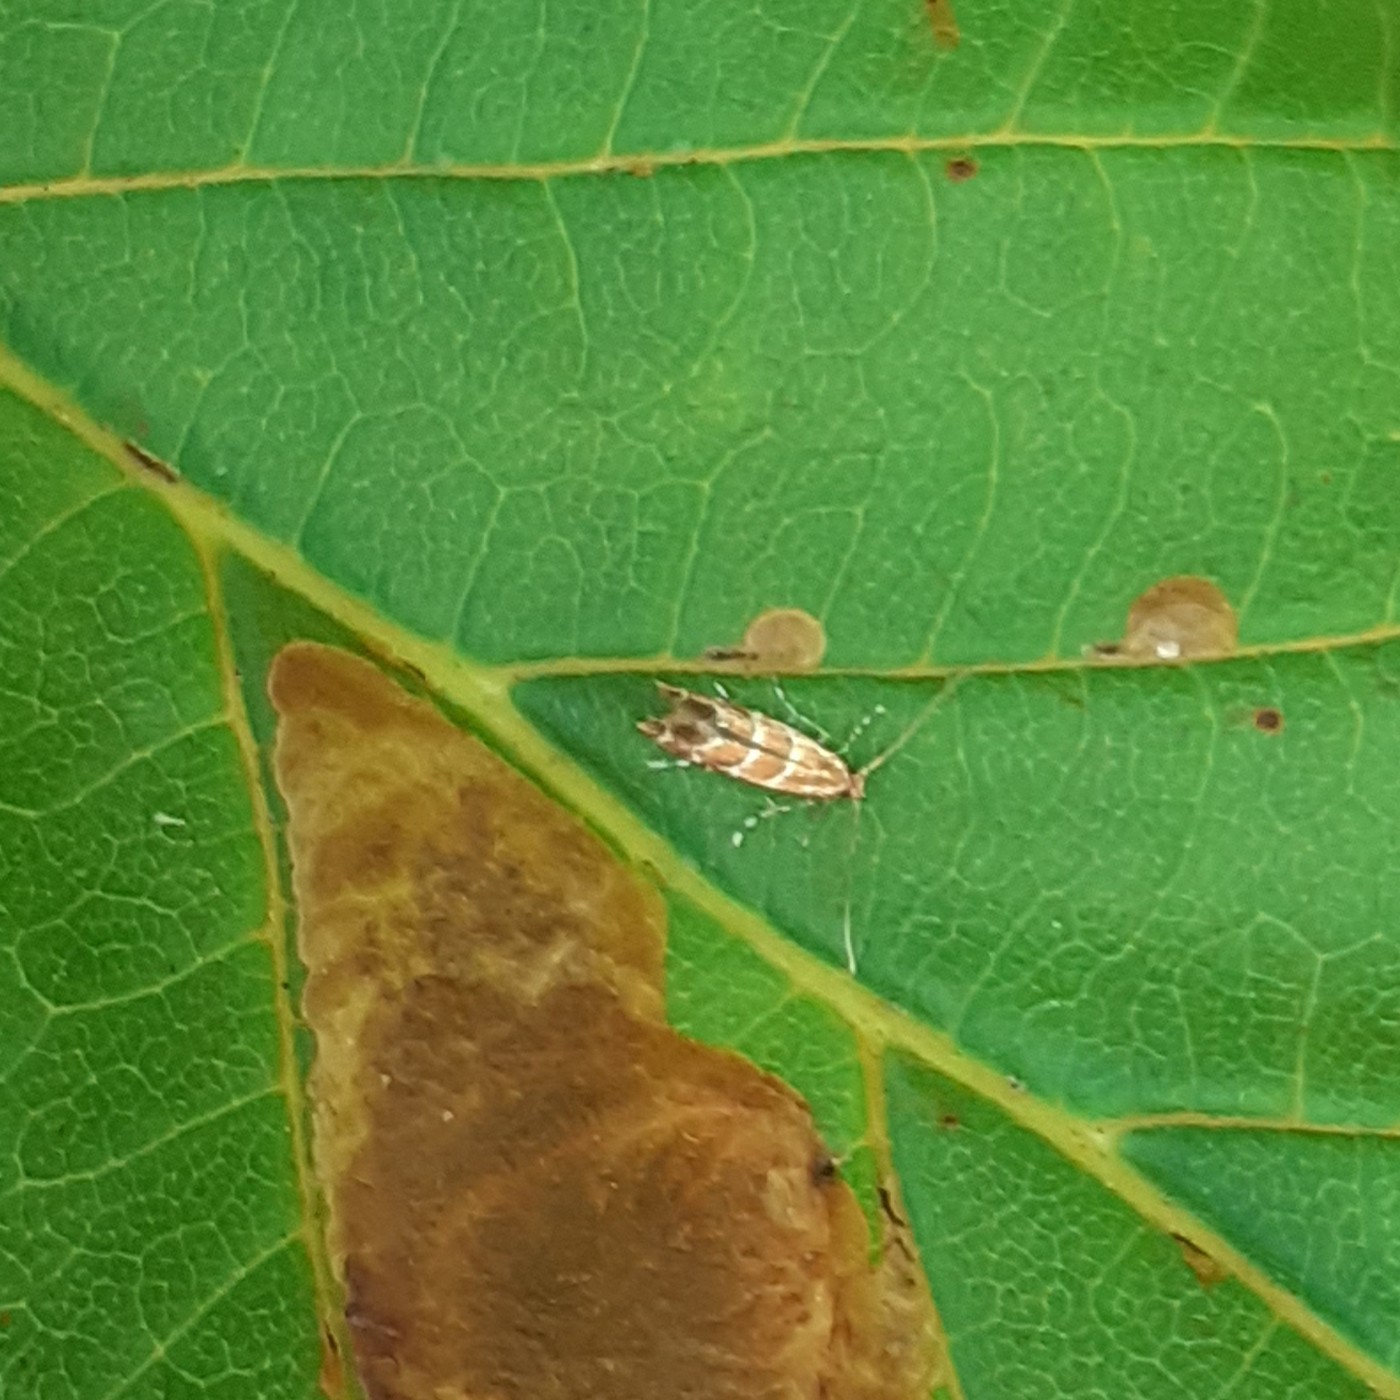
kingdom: Animalia
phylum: Arthropoda
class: Insecta
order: Lepidoptera
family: Gracillariidae
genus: Cameraria
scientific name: Cameraria ohridella
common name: Horse-chestnut leaf-miner
